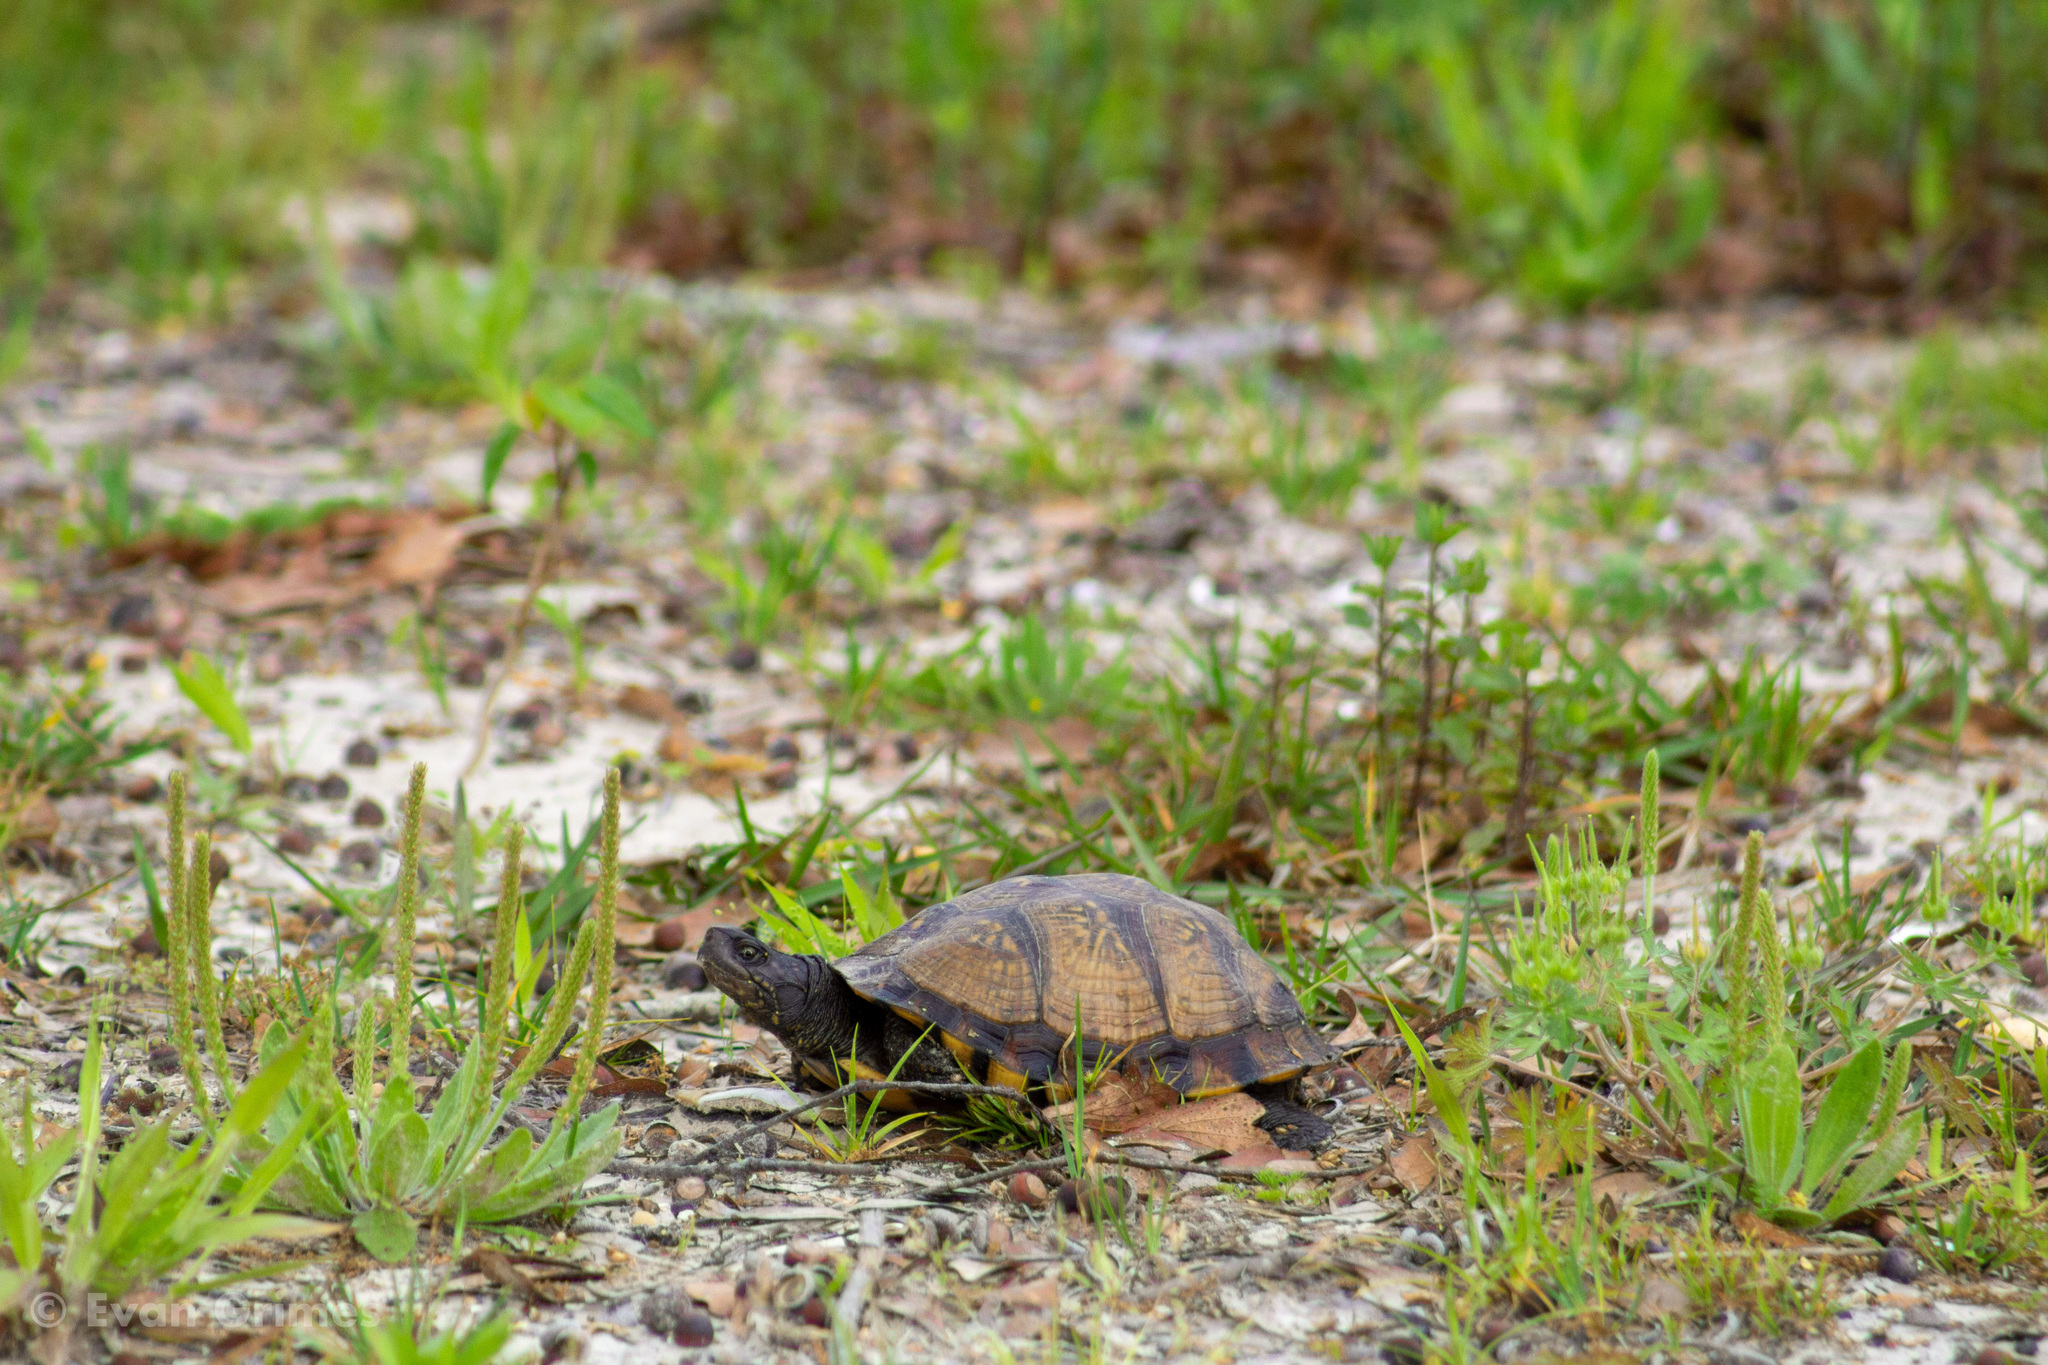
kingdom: Animalia
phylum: Chordata
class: Testudines
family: Emydidae
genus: Terrapene
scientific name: Terrapene carolina
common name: Common box turtle
